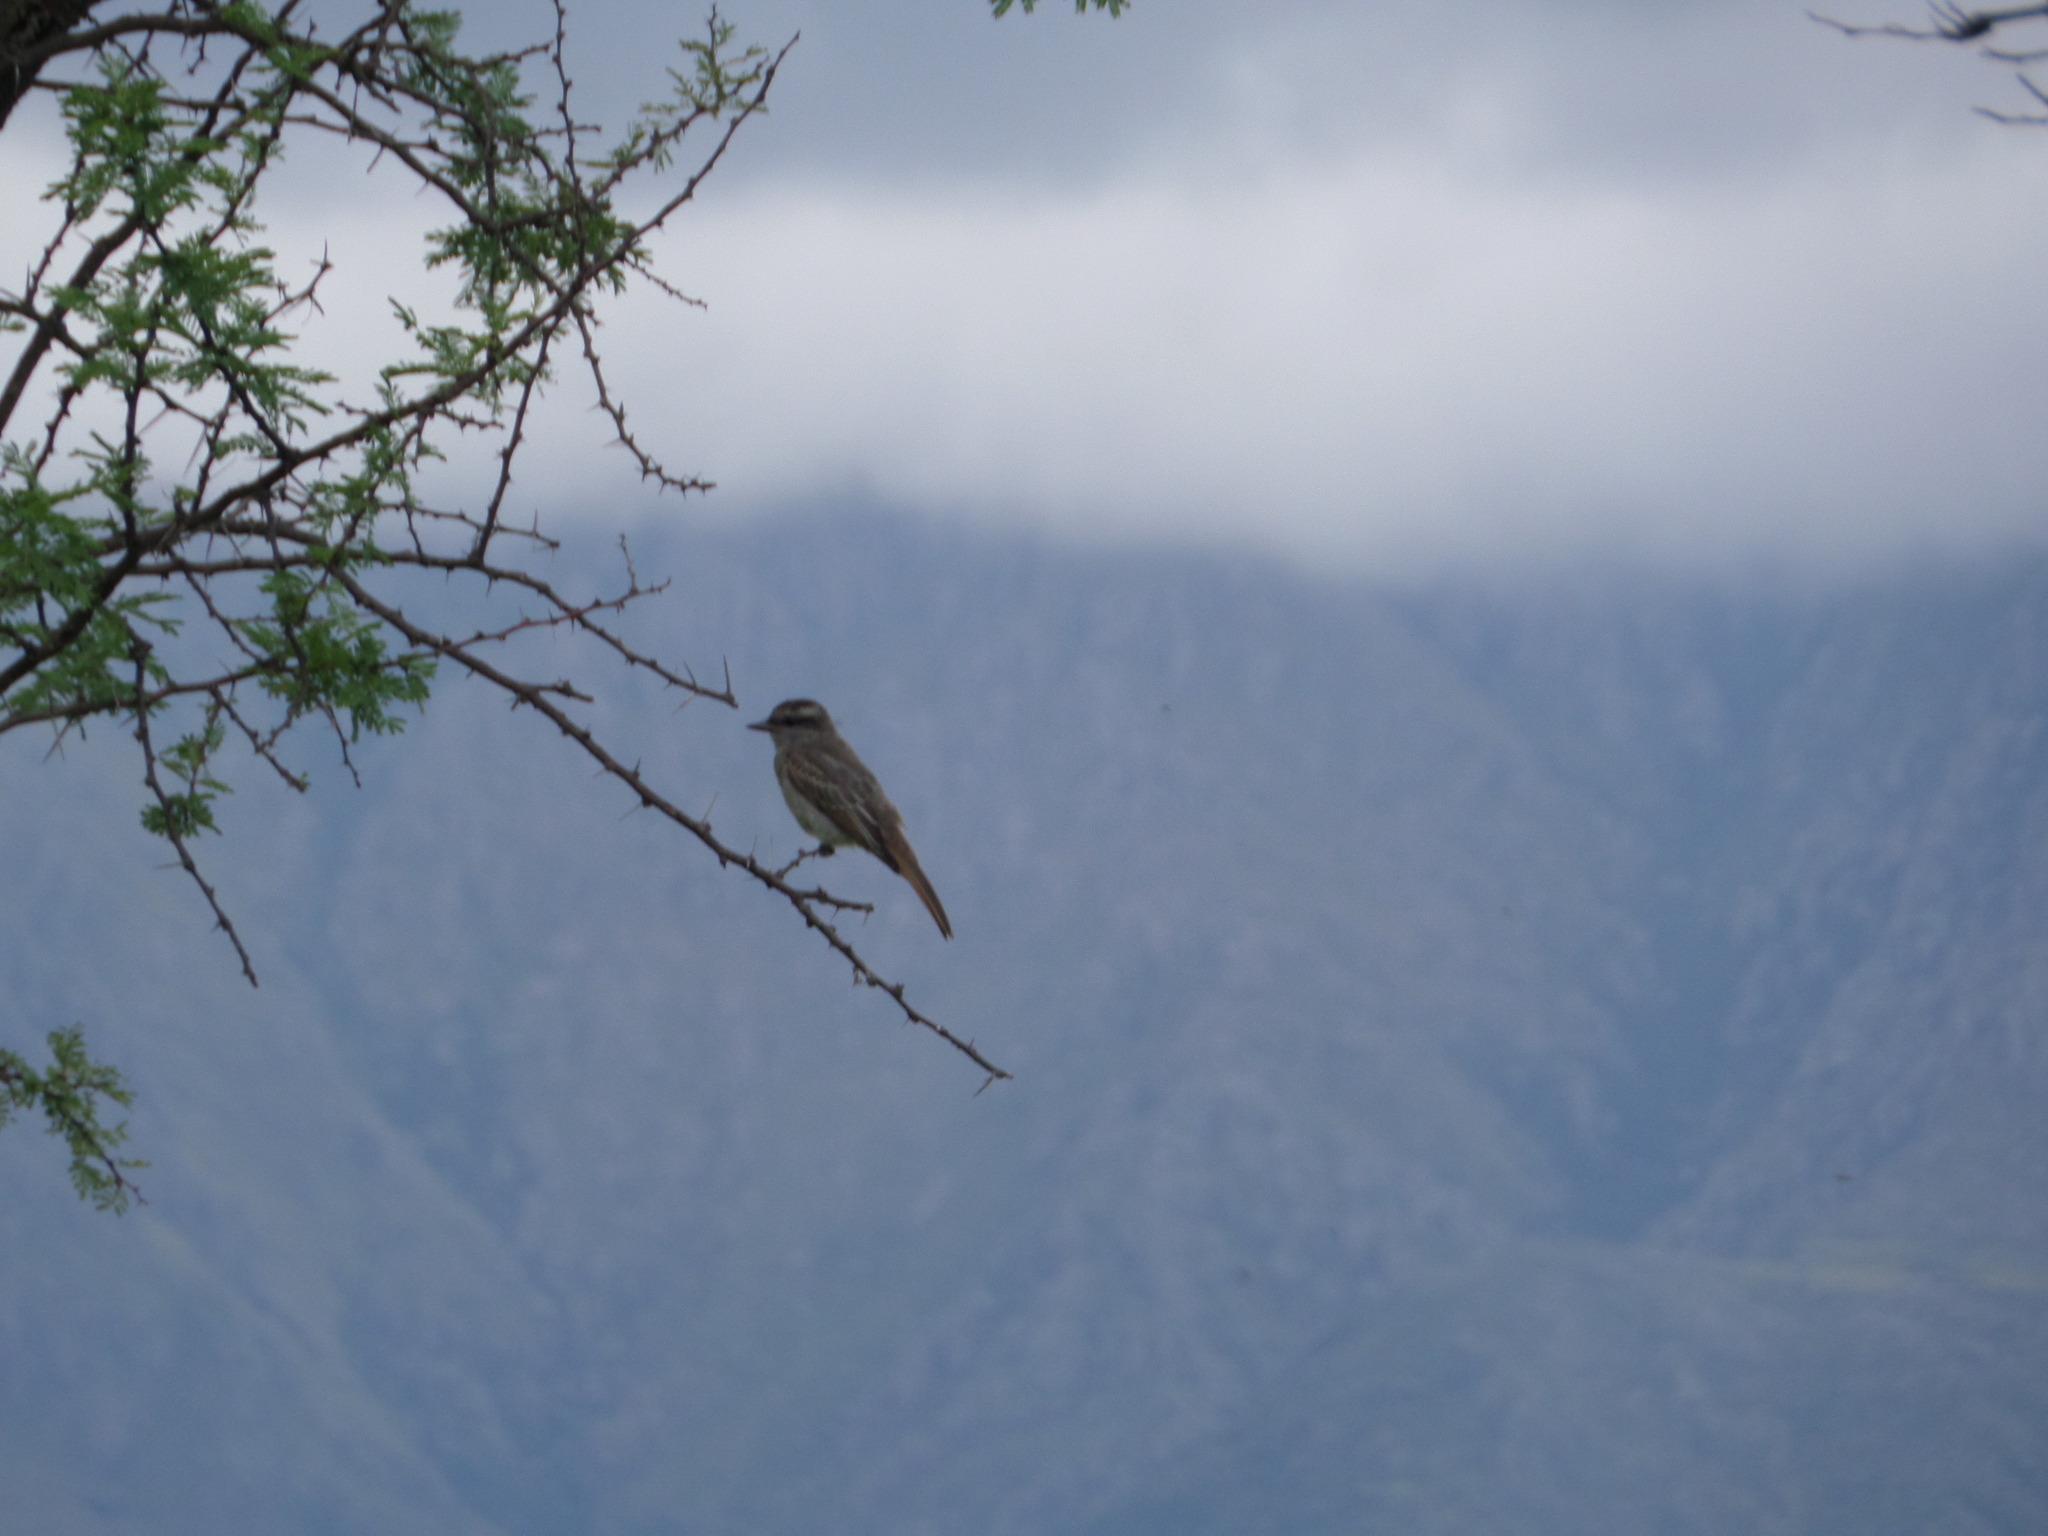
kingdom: Animalia
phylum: Chordata
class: Aves
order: Passeriformes
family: Tyrannidae
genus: Empidonomus
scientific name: Empidonomus aurantioatrocristatus
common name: Crowned slaty flycatcher
